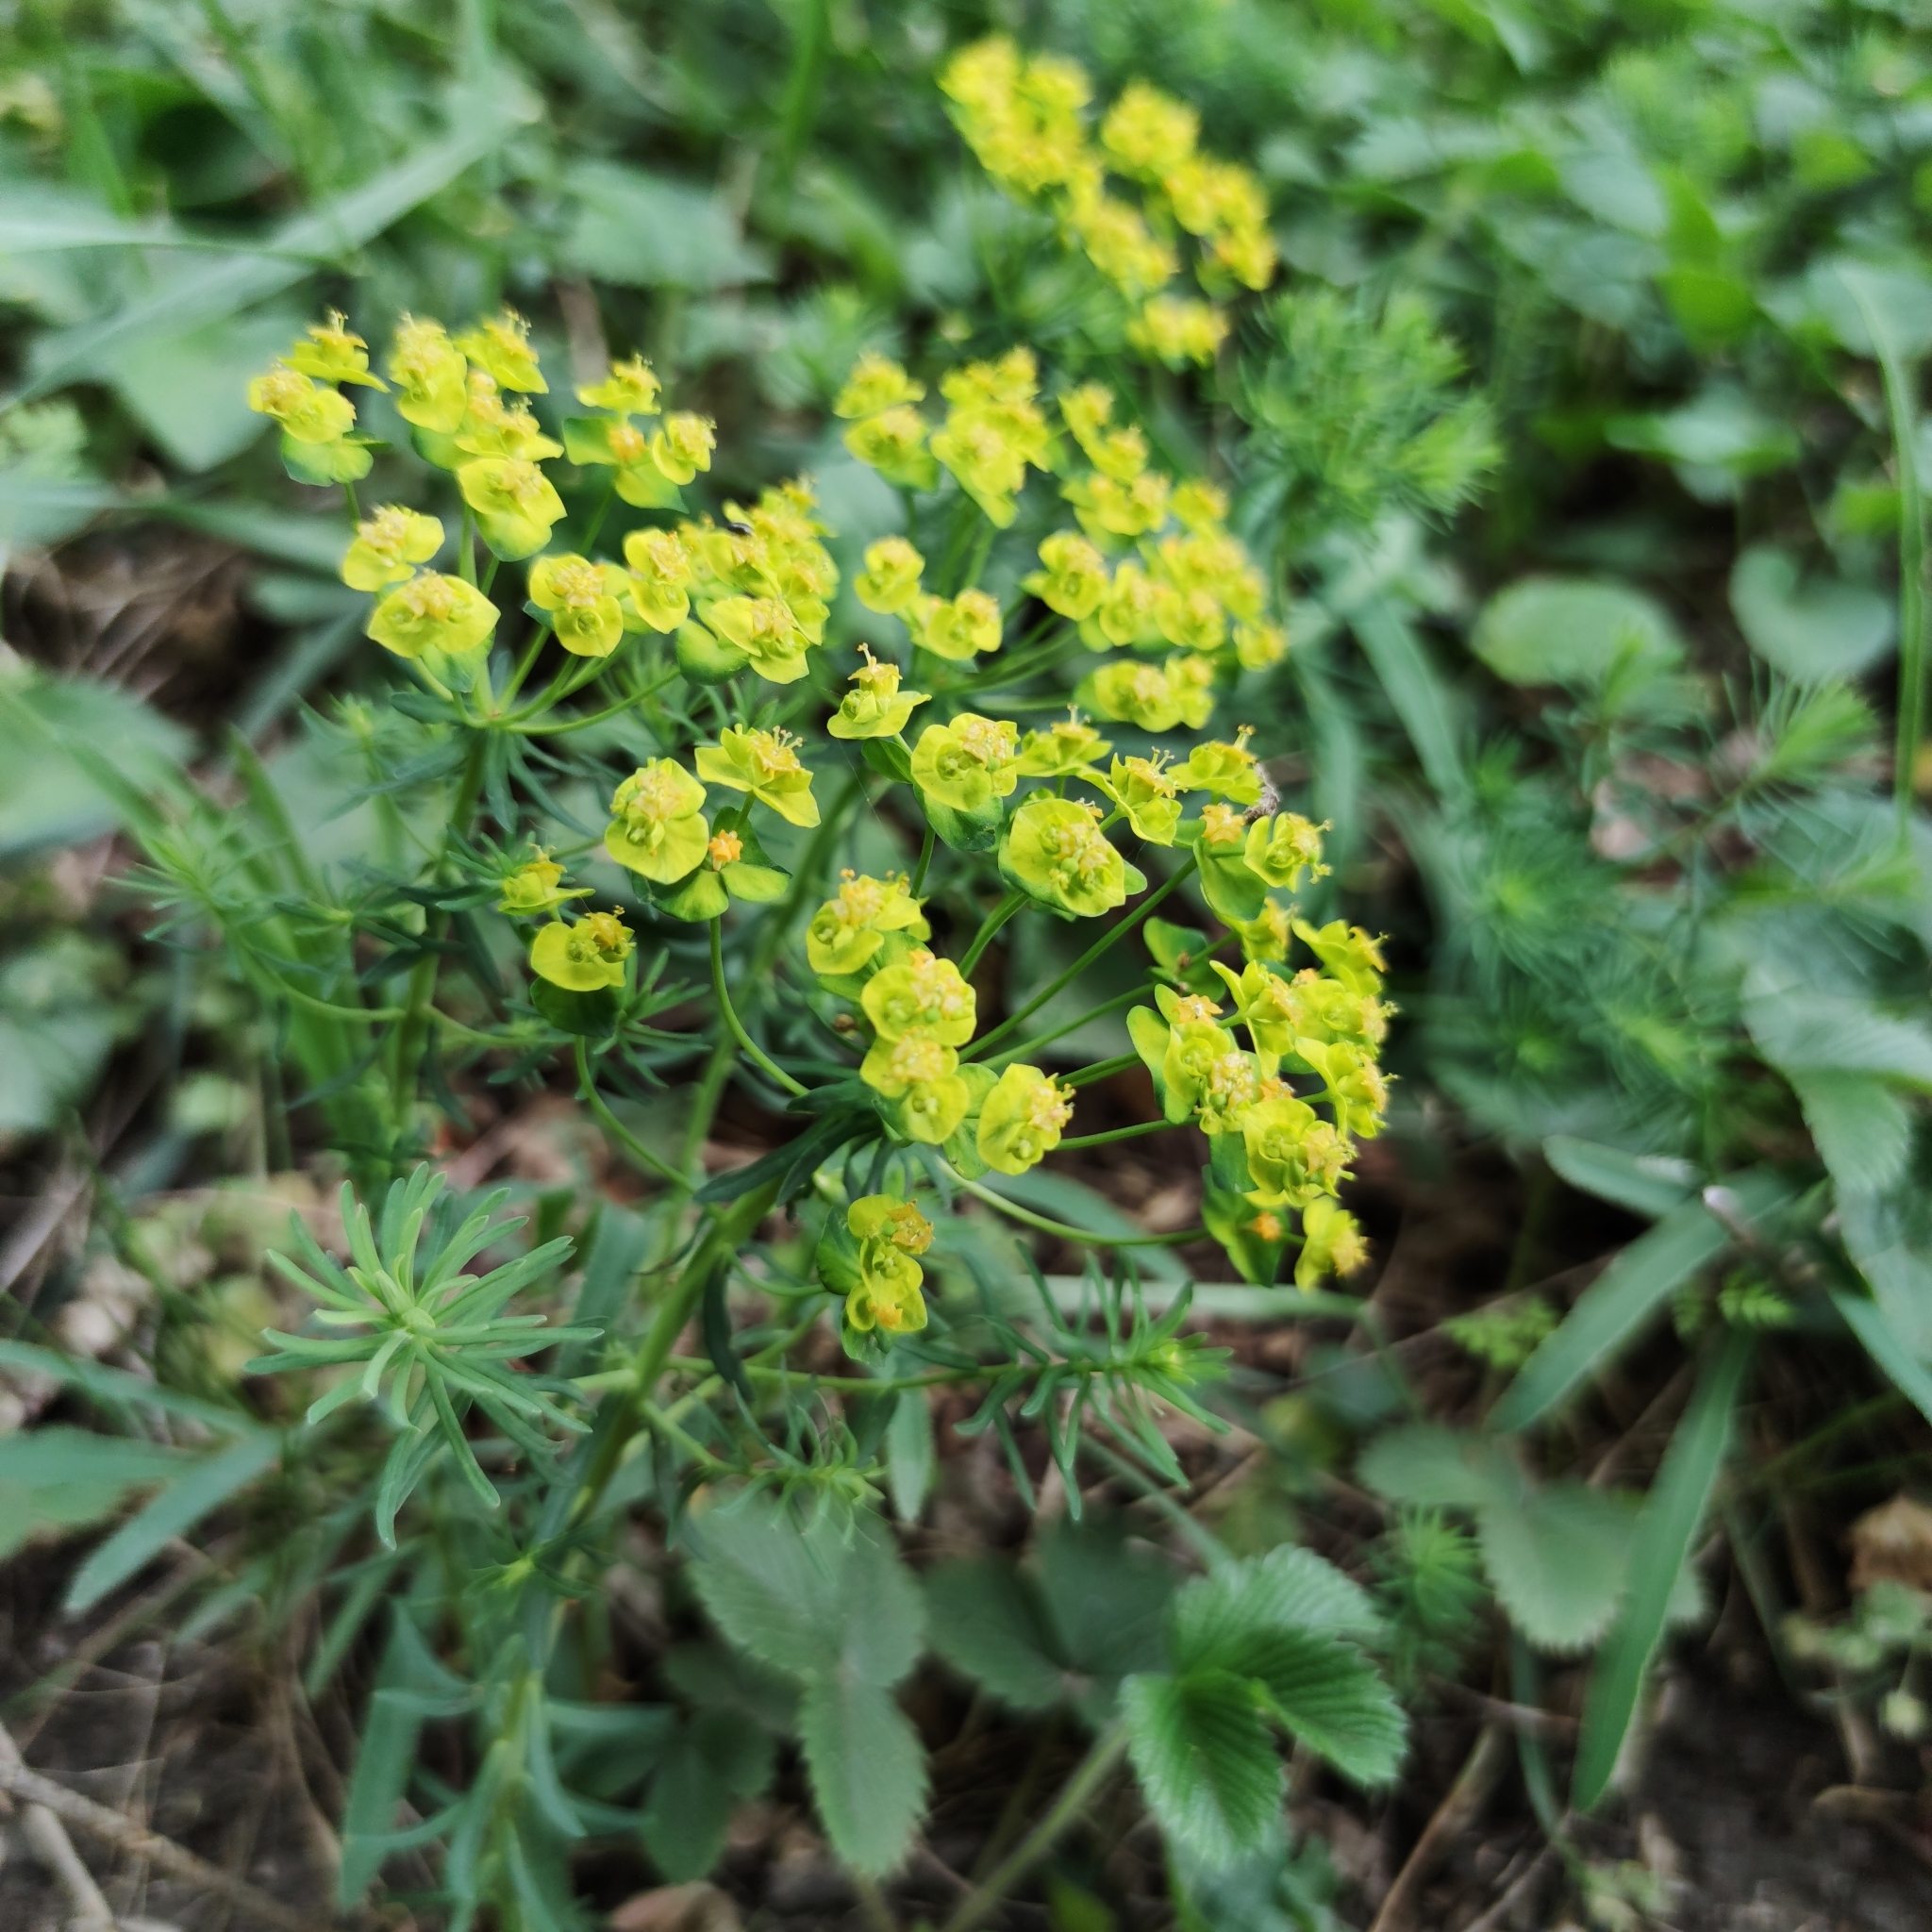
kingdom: Plantae
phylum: Tracheophyta
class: Magnoliopsida
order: Malpighiales
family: Euphorbiaceae
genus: Euphorbia
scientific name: Euphorbia cyparissias
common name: Cypress spurge
